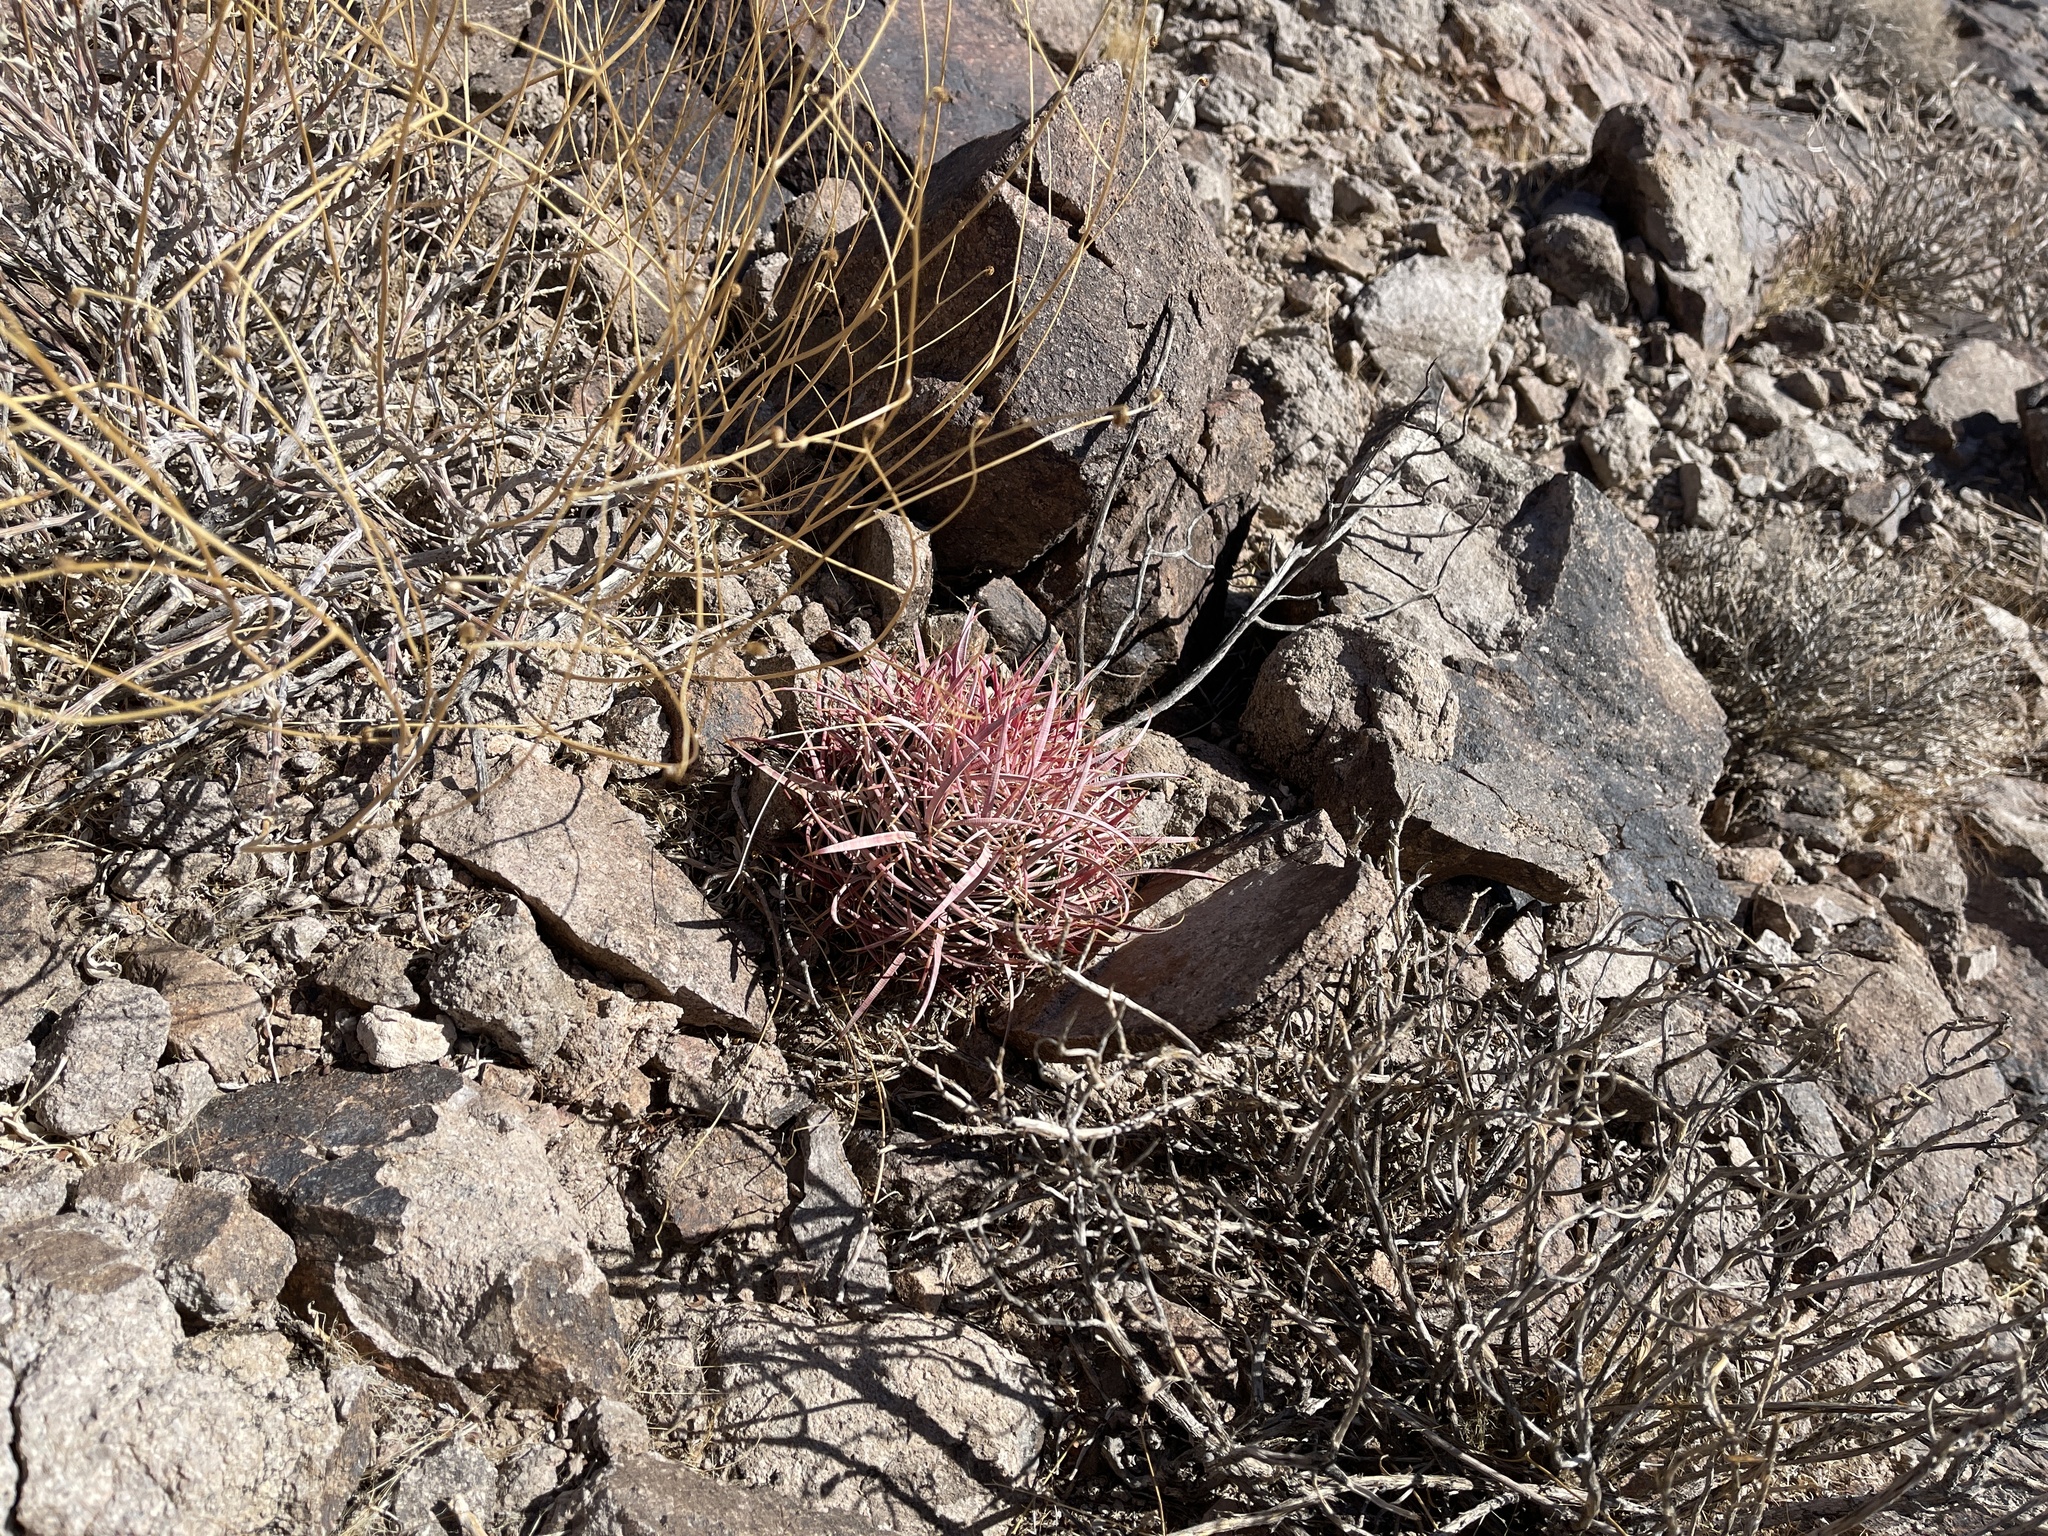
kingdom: Plantae
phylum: Tracheophyta
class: Magnoliopsida
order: Caryophyllales
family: Cactaceae
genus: Ferocactus
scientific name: Ferocactus cylindraceus
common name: California barrel cactus
